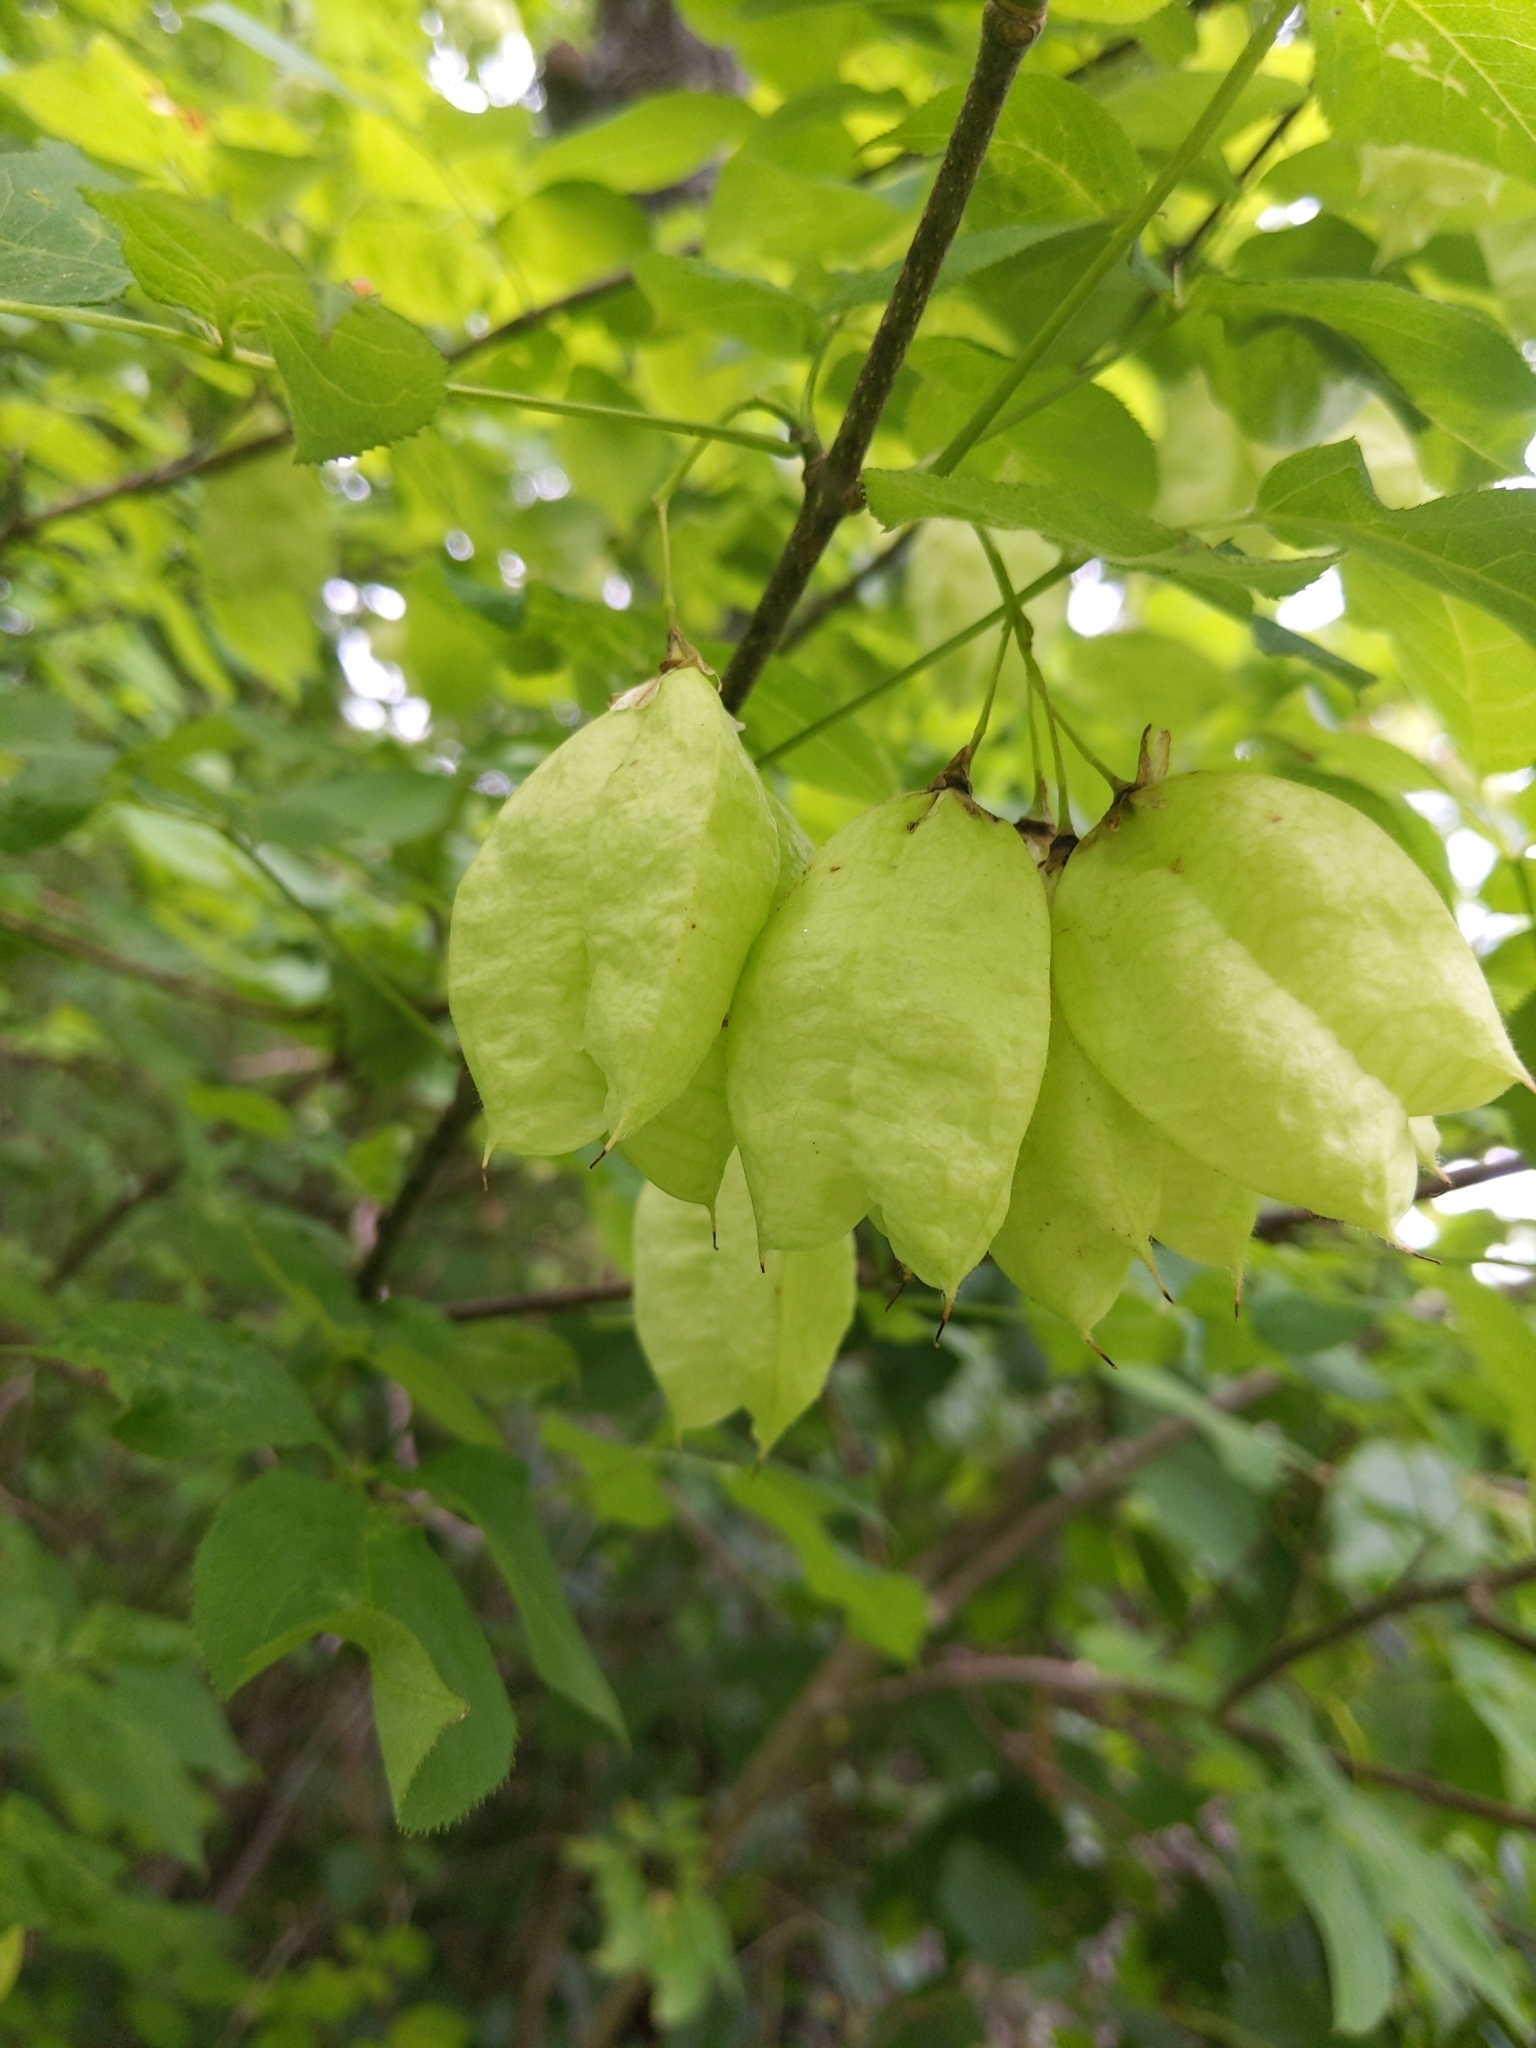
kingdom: Plantae
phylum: Tracheophyta
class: Magnoliopsida
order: Crossosomatales
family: Staphyleaceae
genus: Staphylea
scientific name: Staphylea trifolia
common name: American bladdernut
